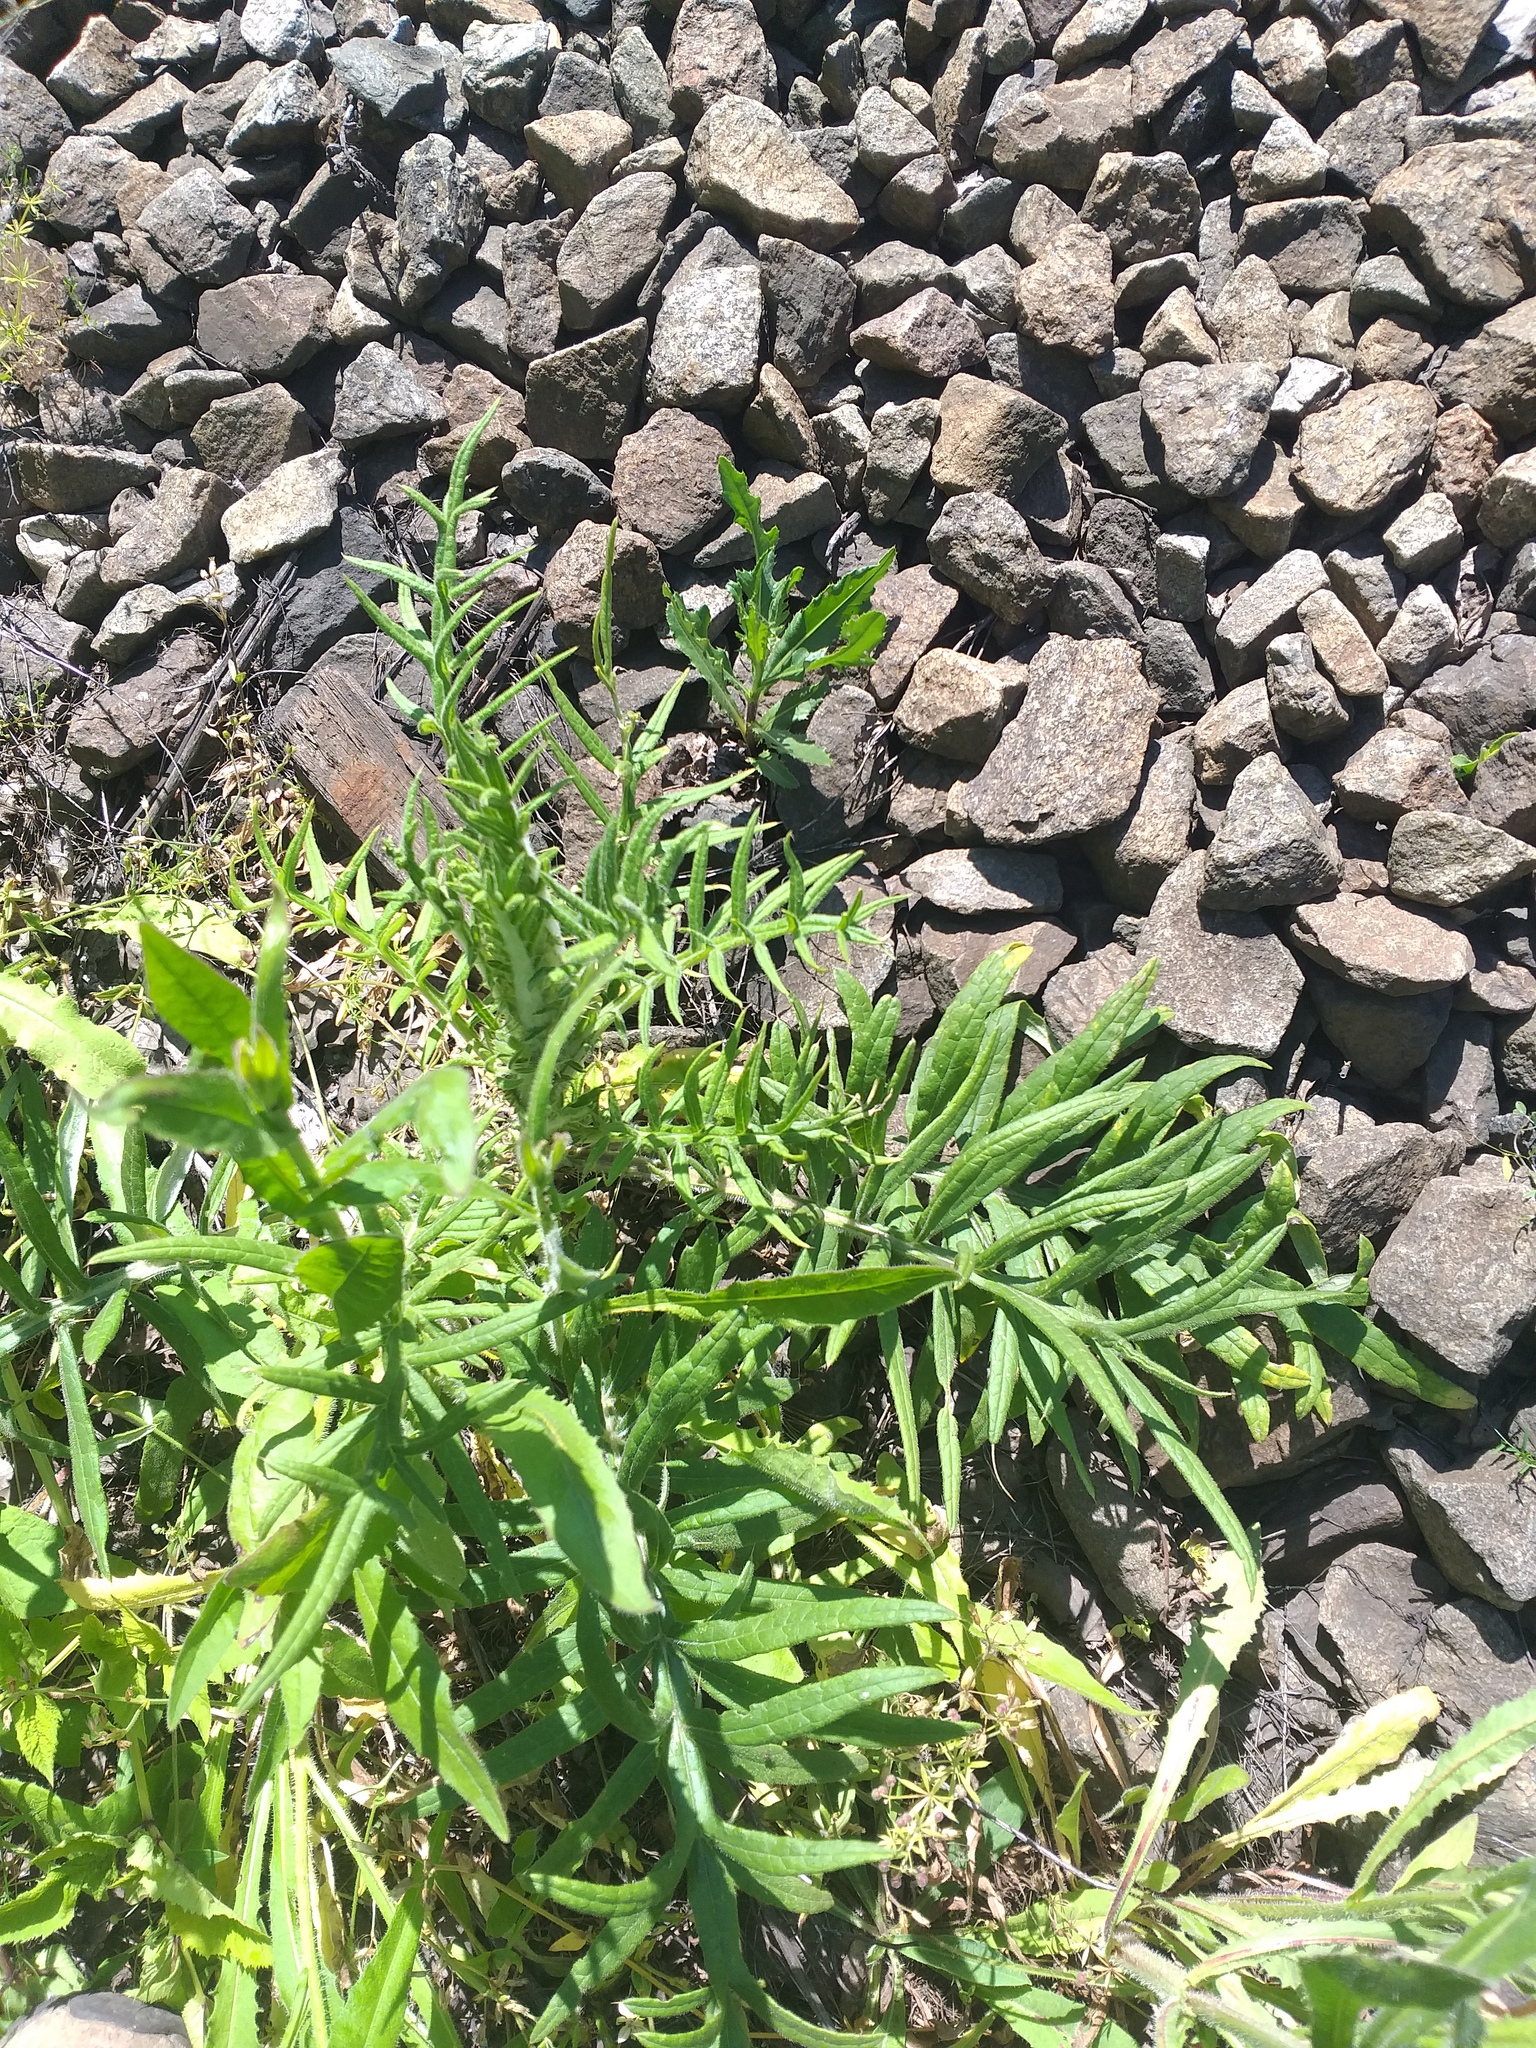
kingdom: Plantae
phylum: Tracheophyta
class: Magnoliopsida
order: Asterales
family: Asteraceae
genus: Lophiolepis
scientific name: Lophiolepis decussata
